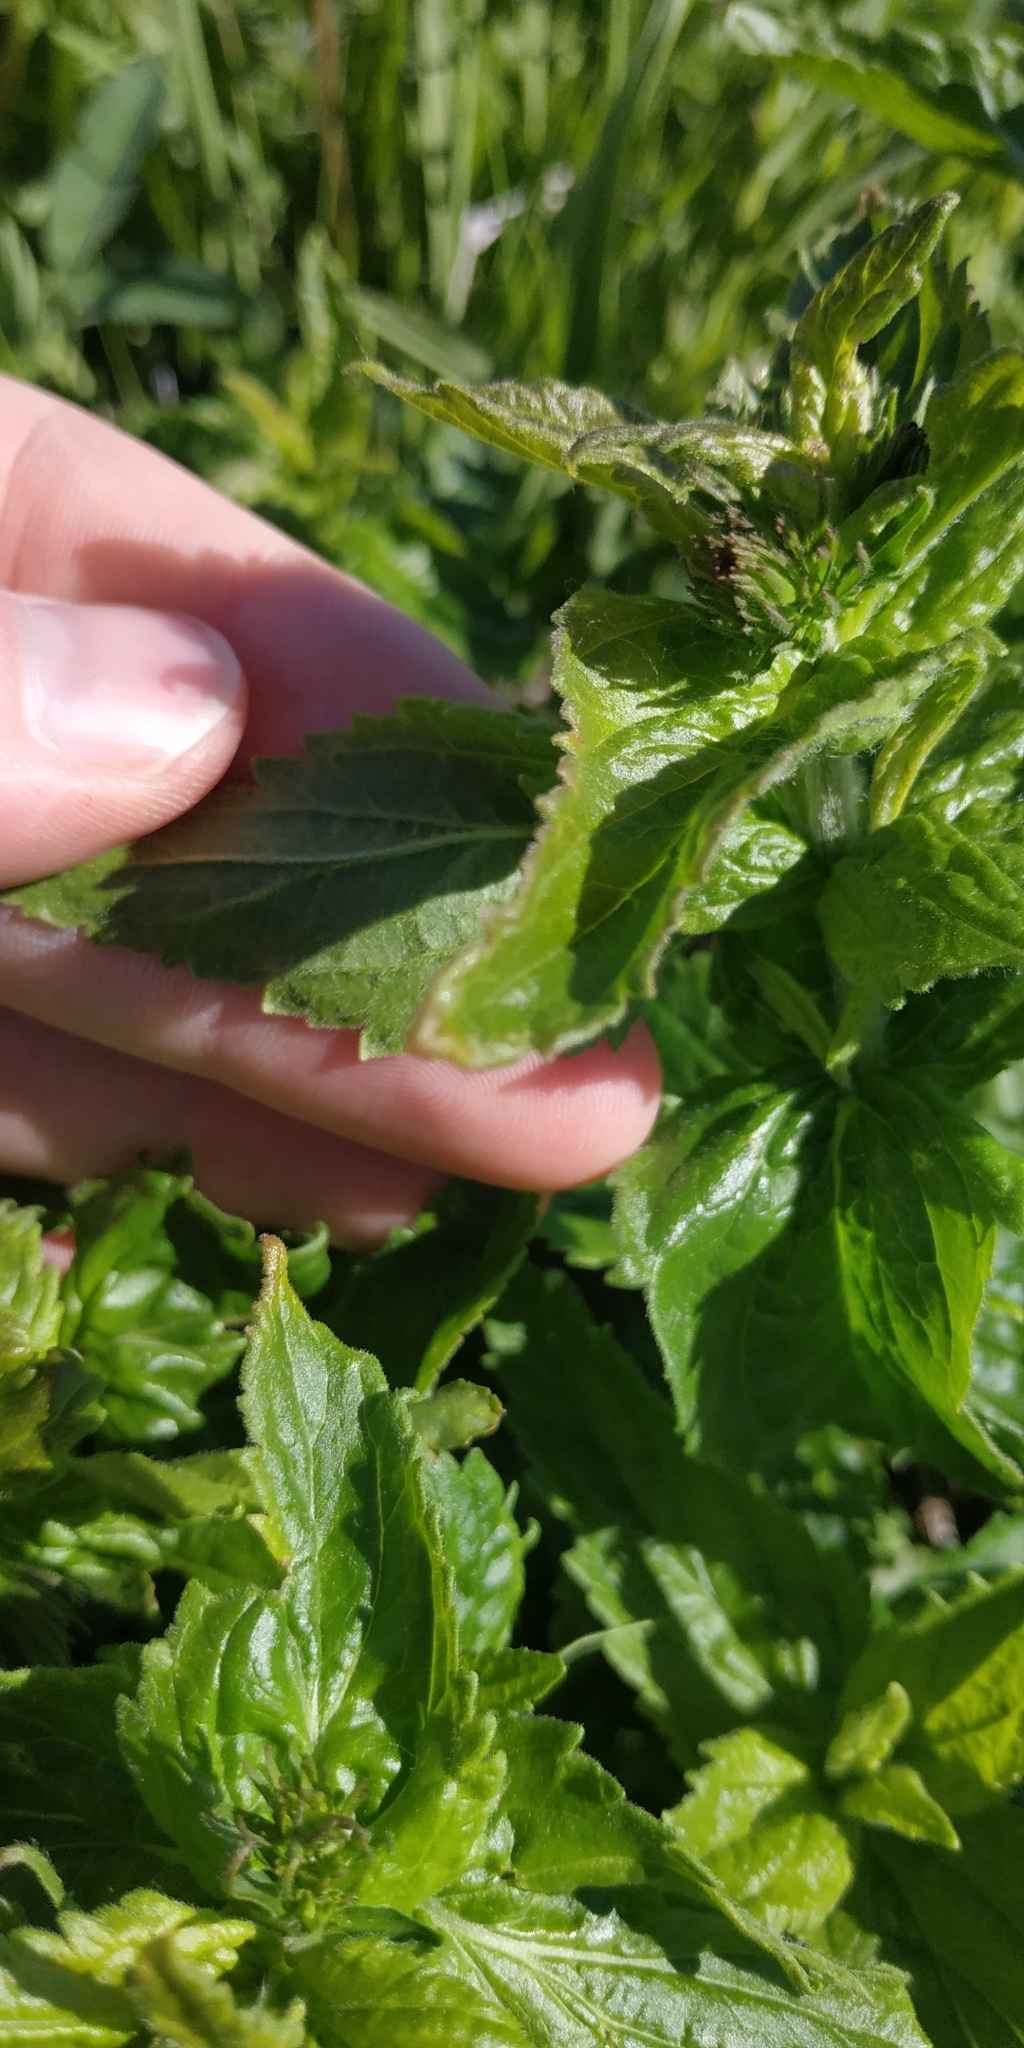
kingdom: Plantae
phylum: Tracheophyta
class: Magnoliopsida
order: Lamiales
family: Plantaginaceae
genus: Veronica
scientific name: Veronica teucrium
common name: Large speedwell
